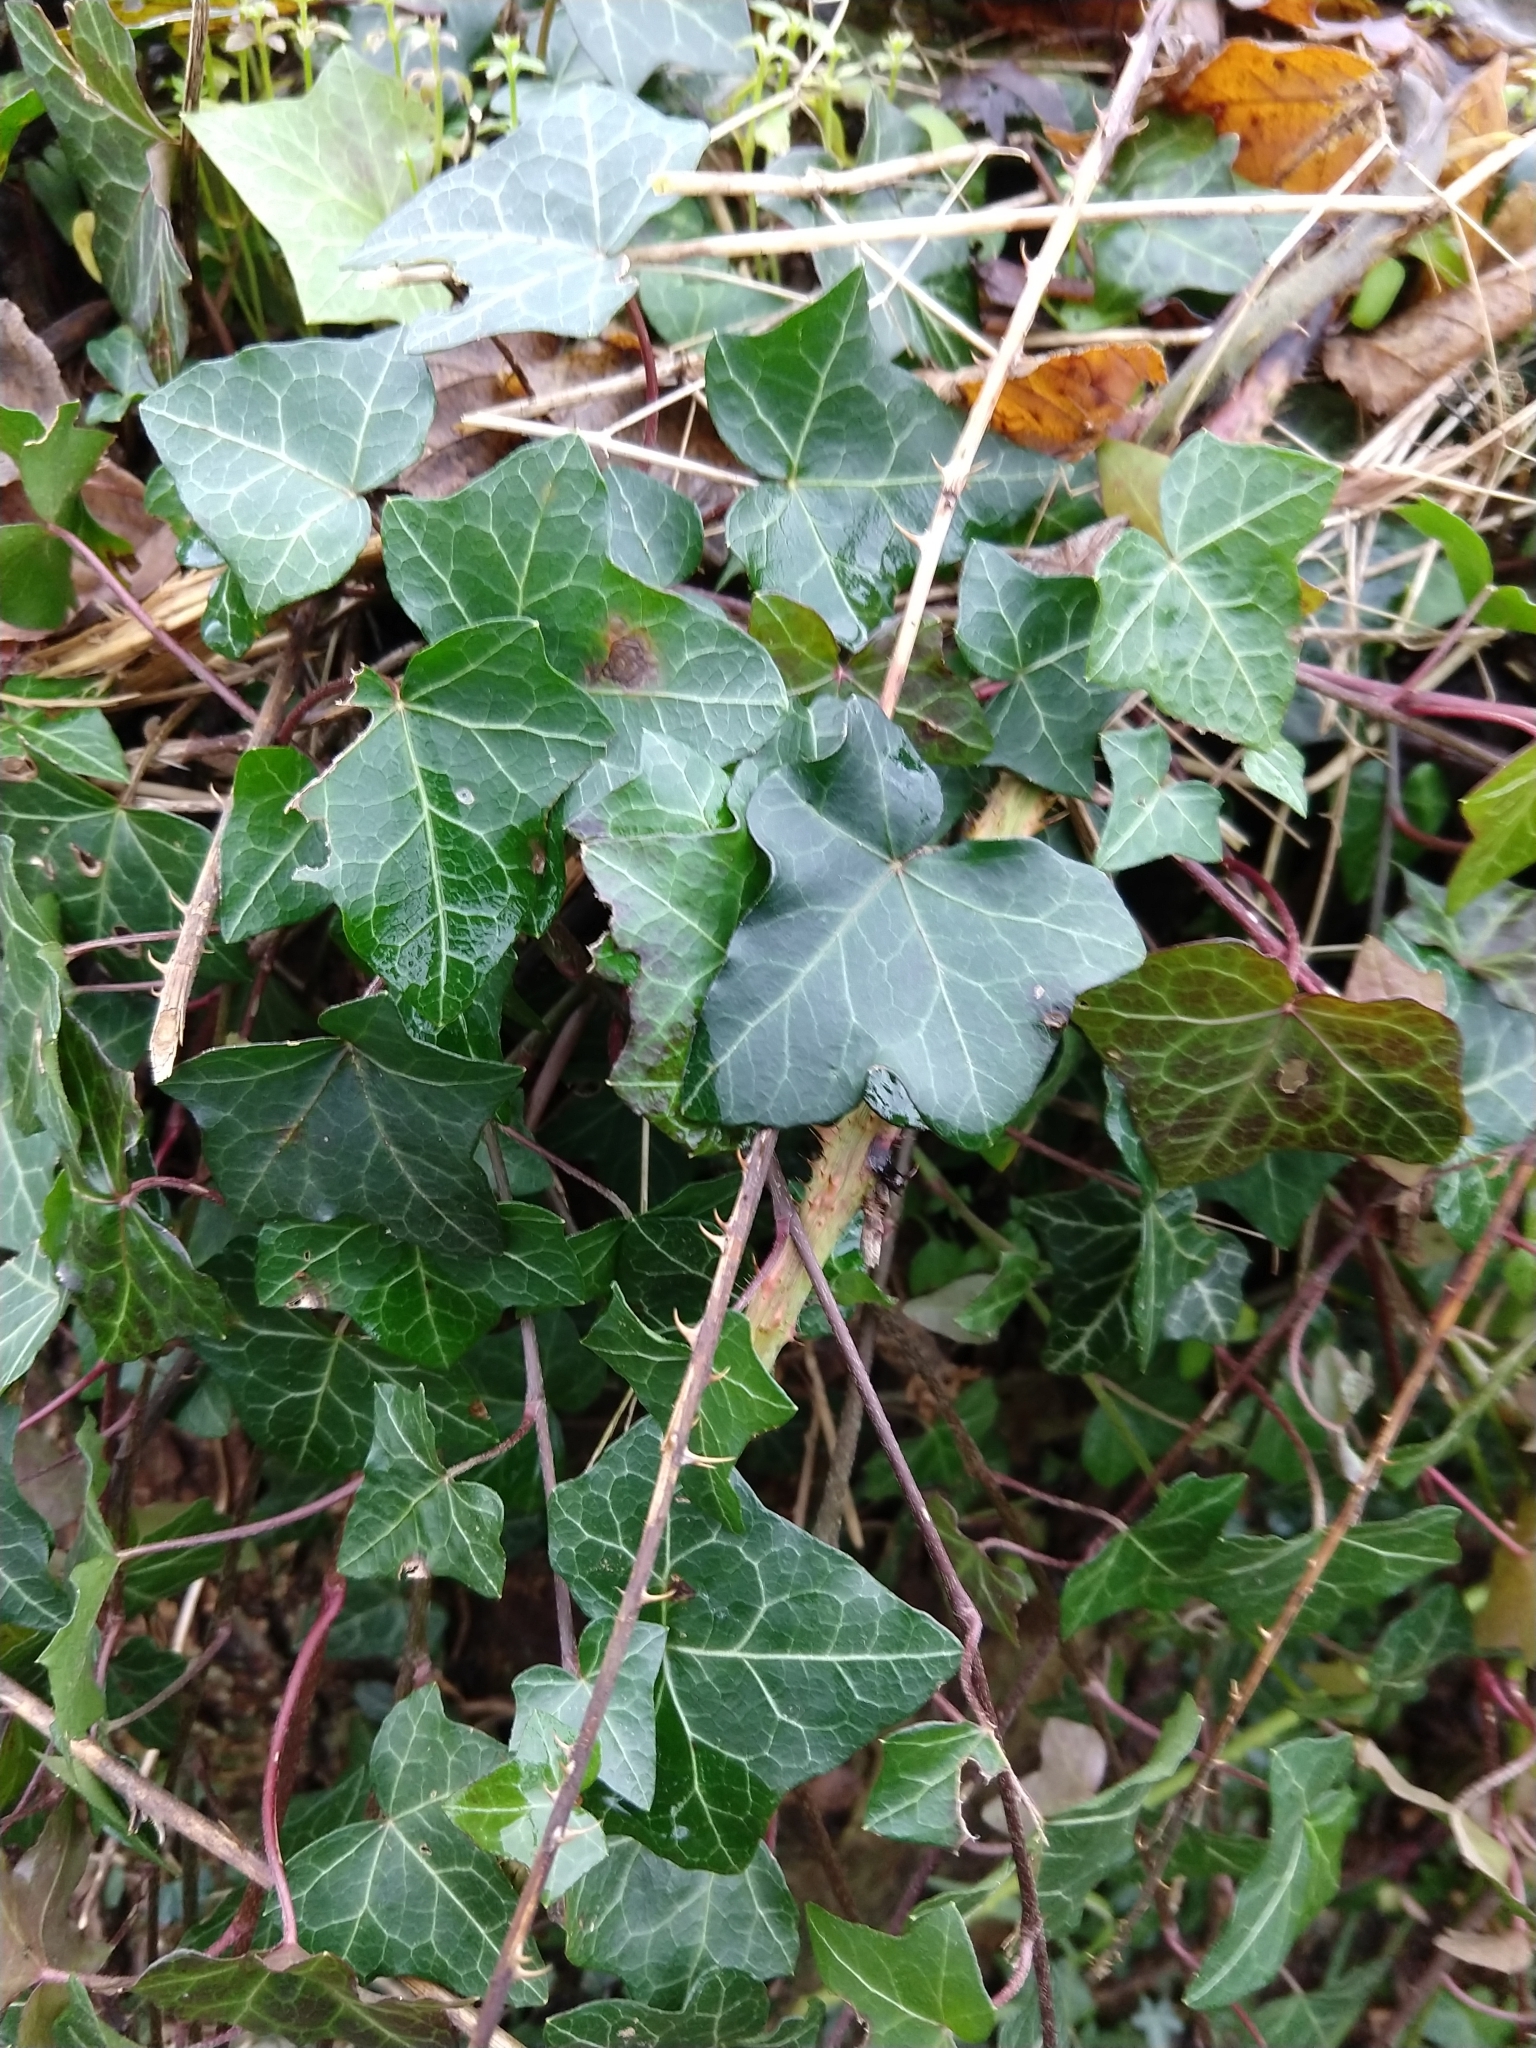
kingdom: Plantae
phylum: Tracheophyta
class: Magnoliopsida
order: Apiales
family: Araliaceae
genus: Hedera
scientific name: Hedera helix
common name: Ivy
